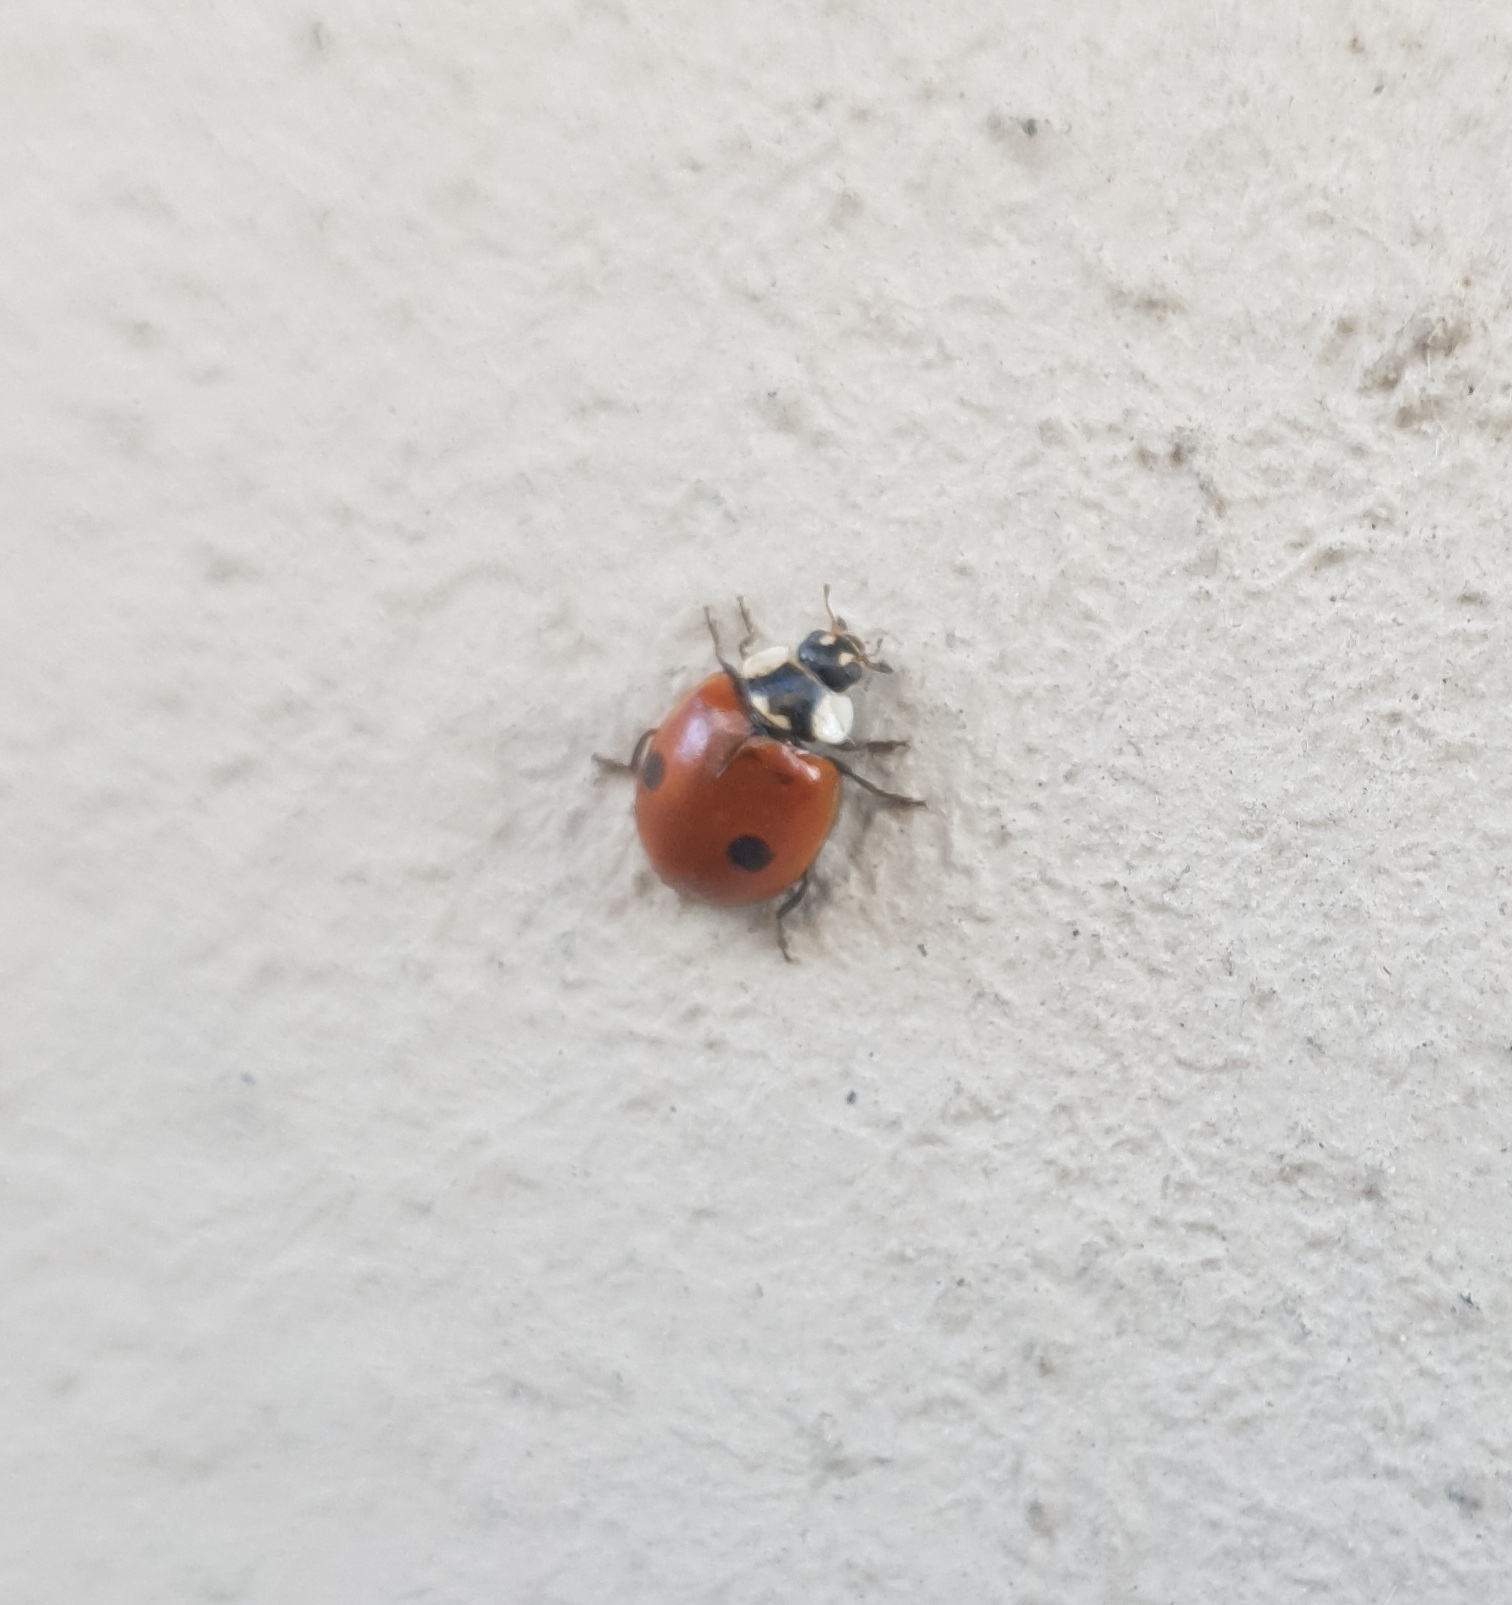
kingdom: Animalia
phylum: Arthropoda
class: Insecta
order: Coleoptera
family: Coccinellidae
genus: Adalia
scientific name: Adalia bipunctata
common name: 2-spot ladybird
